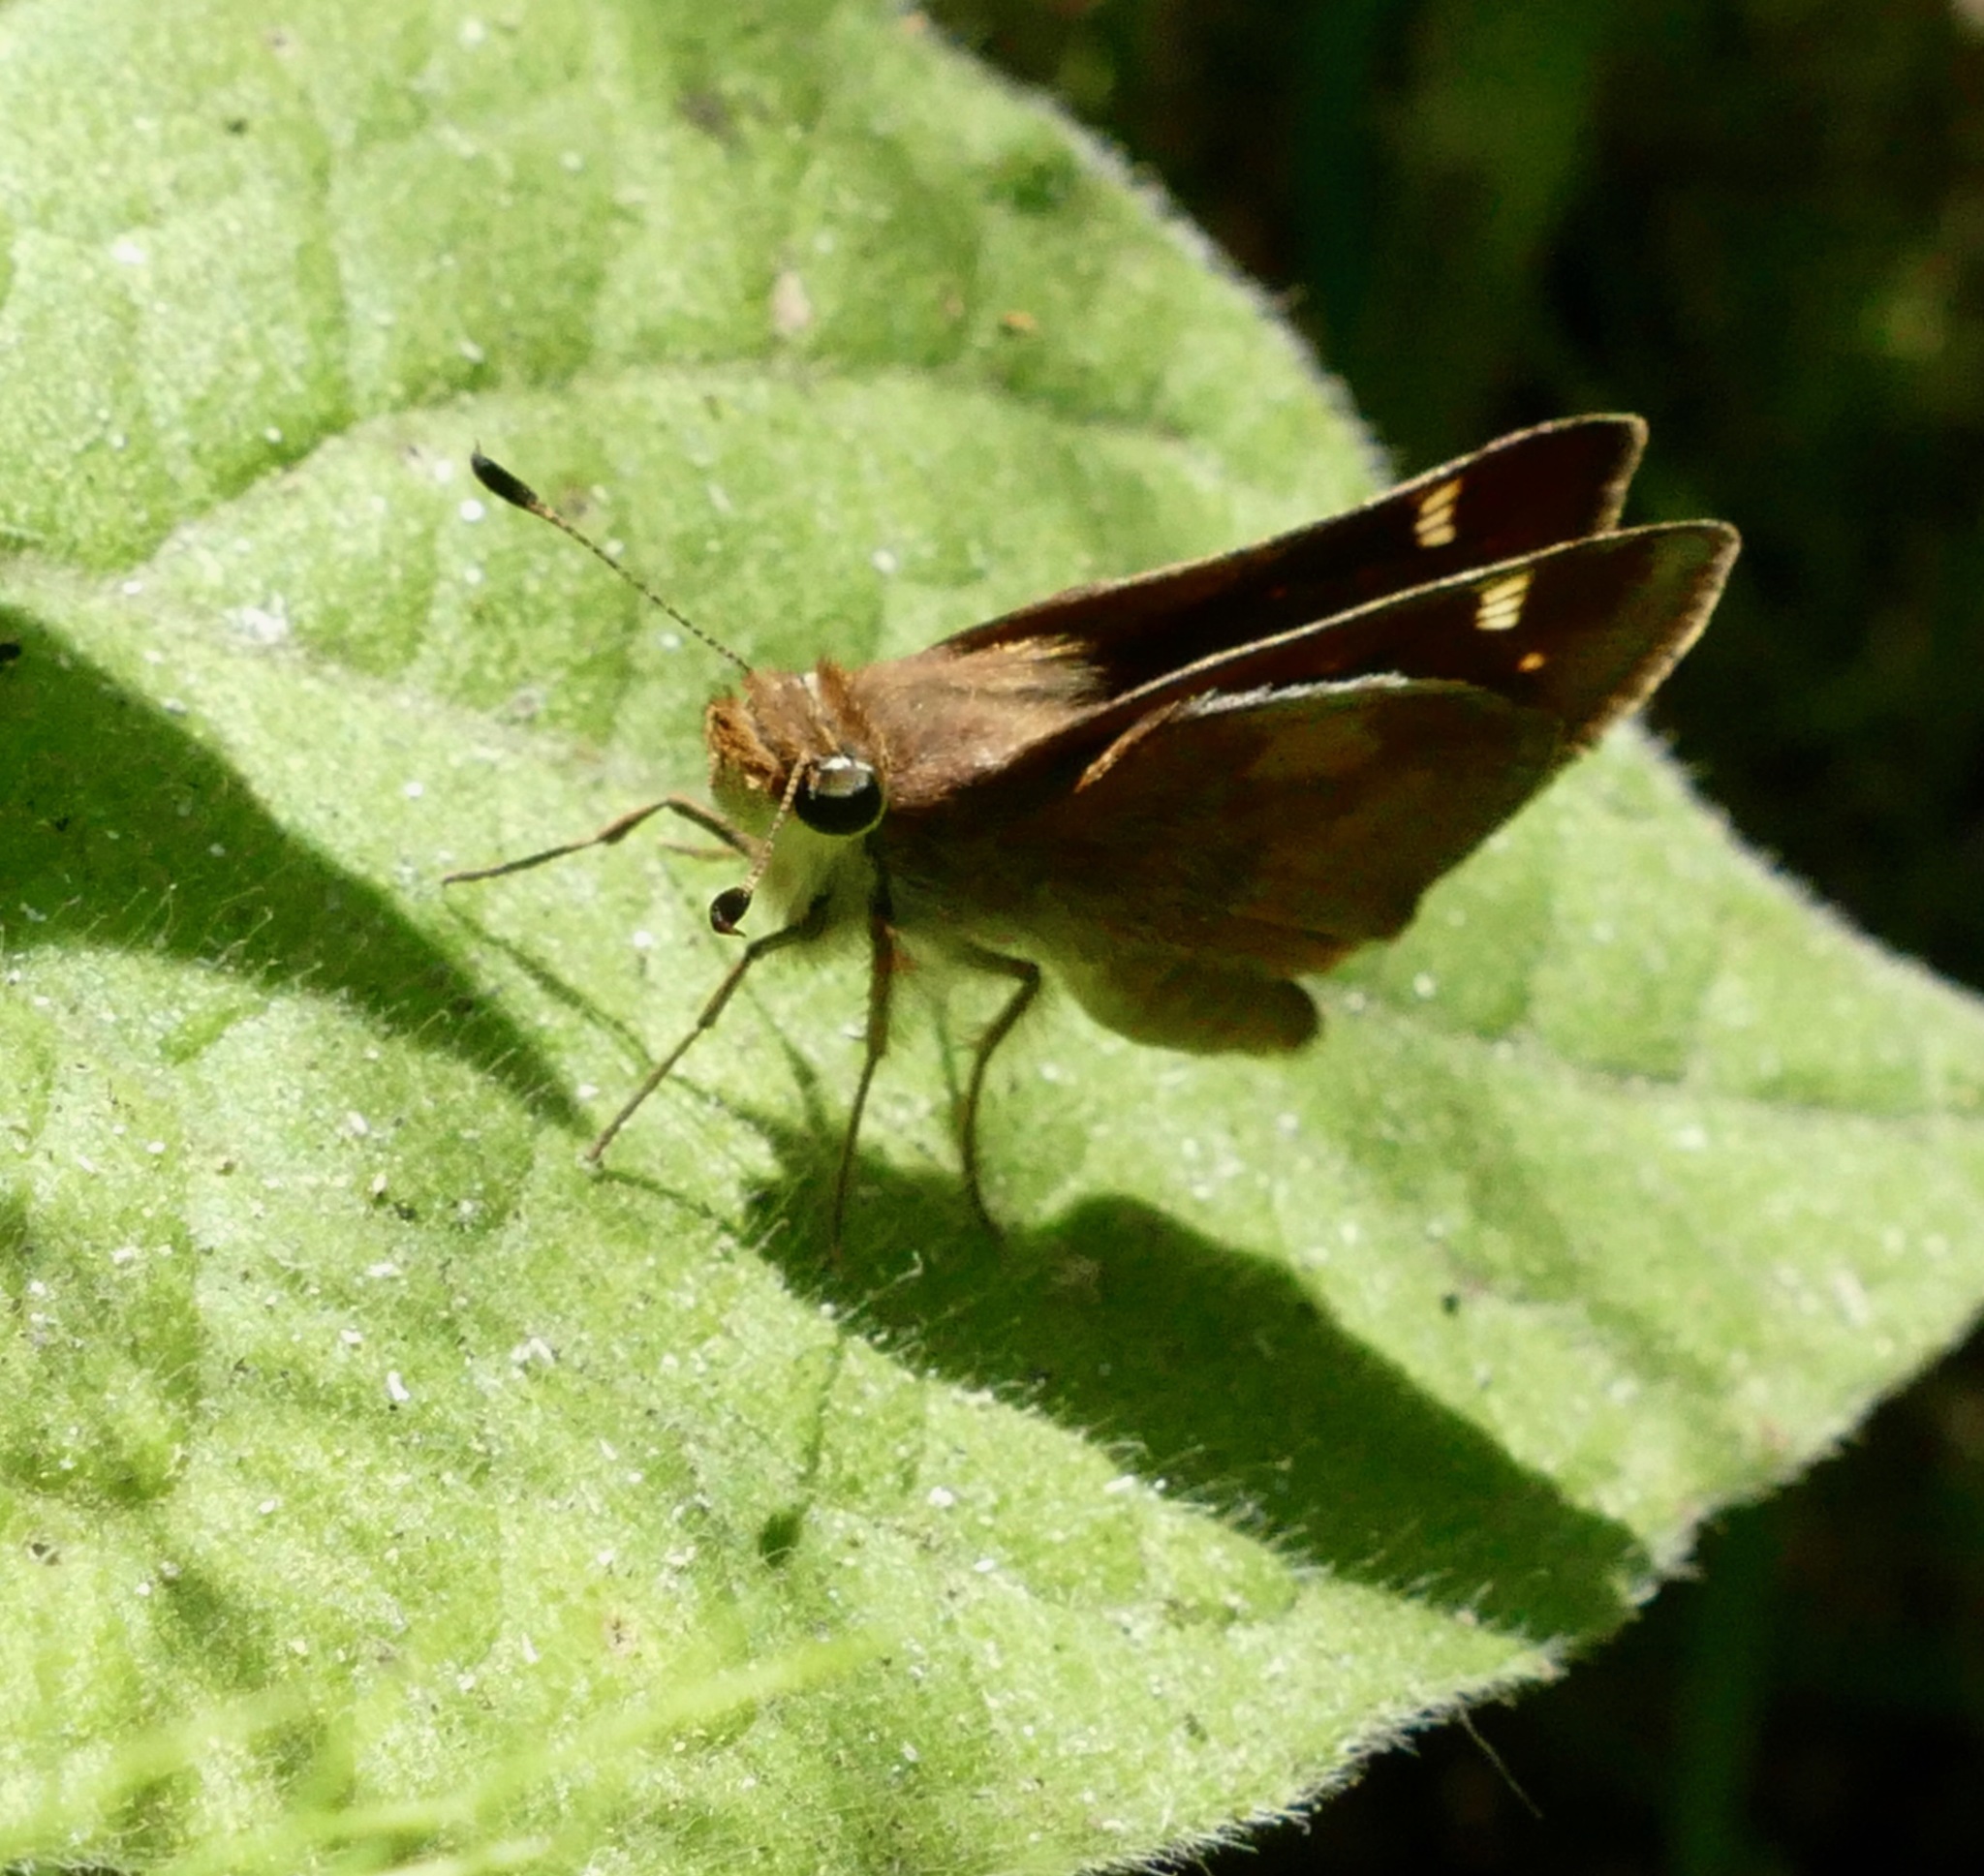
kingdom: Animalia
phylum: Arthropoda
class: Insecta
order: Lepidoptera
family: Hesperiidae
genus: Lon
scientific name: Lon melane
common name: Umber skipper
